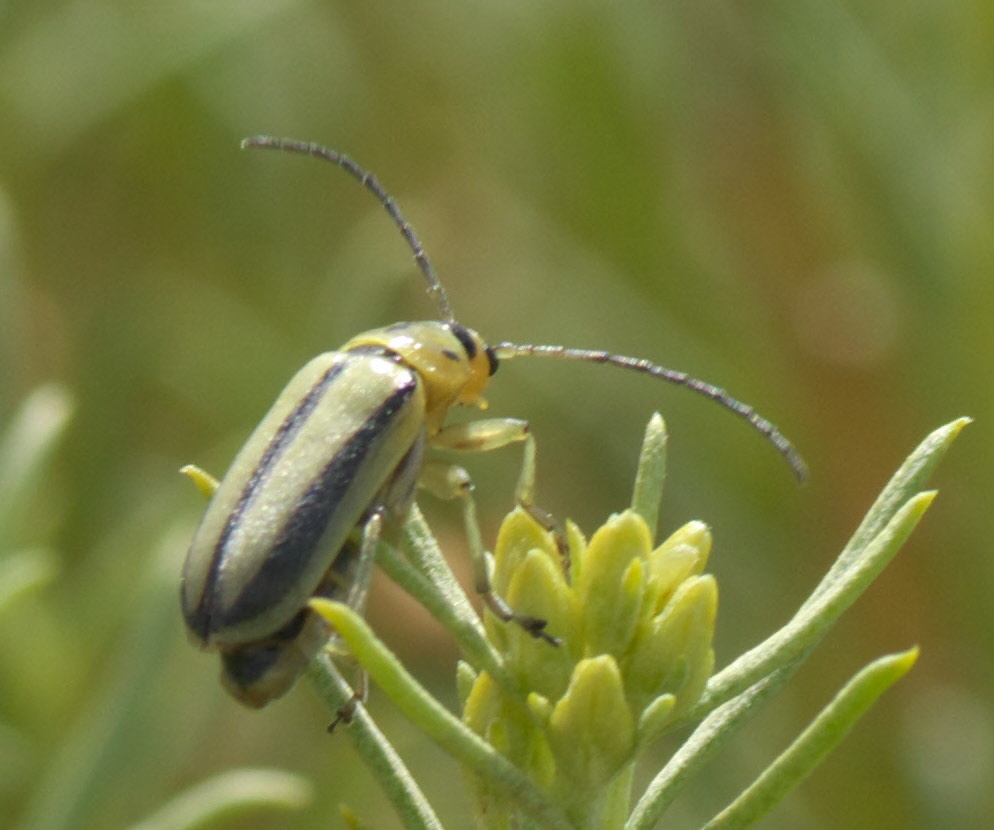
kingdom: Animalia
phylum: Arthropoda
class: Insecta
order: Coleoptera
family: Chrysomelidae
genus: Trirhabda
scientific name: Trirhabda nitidicollis
